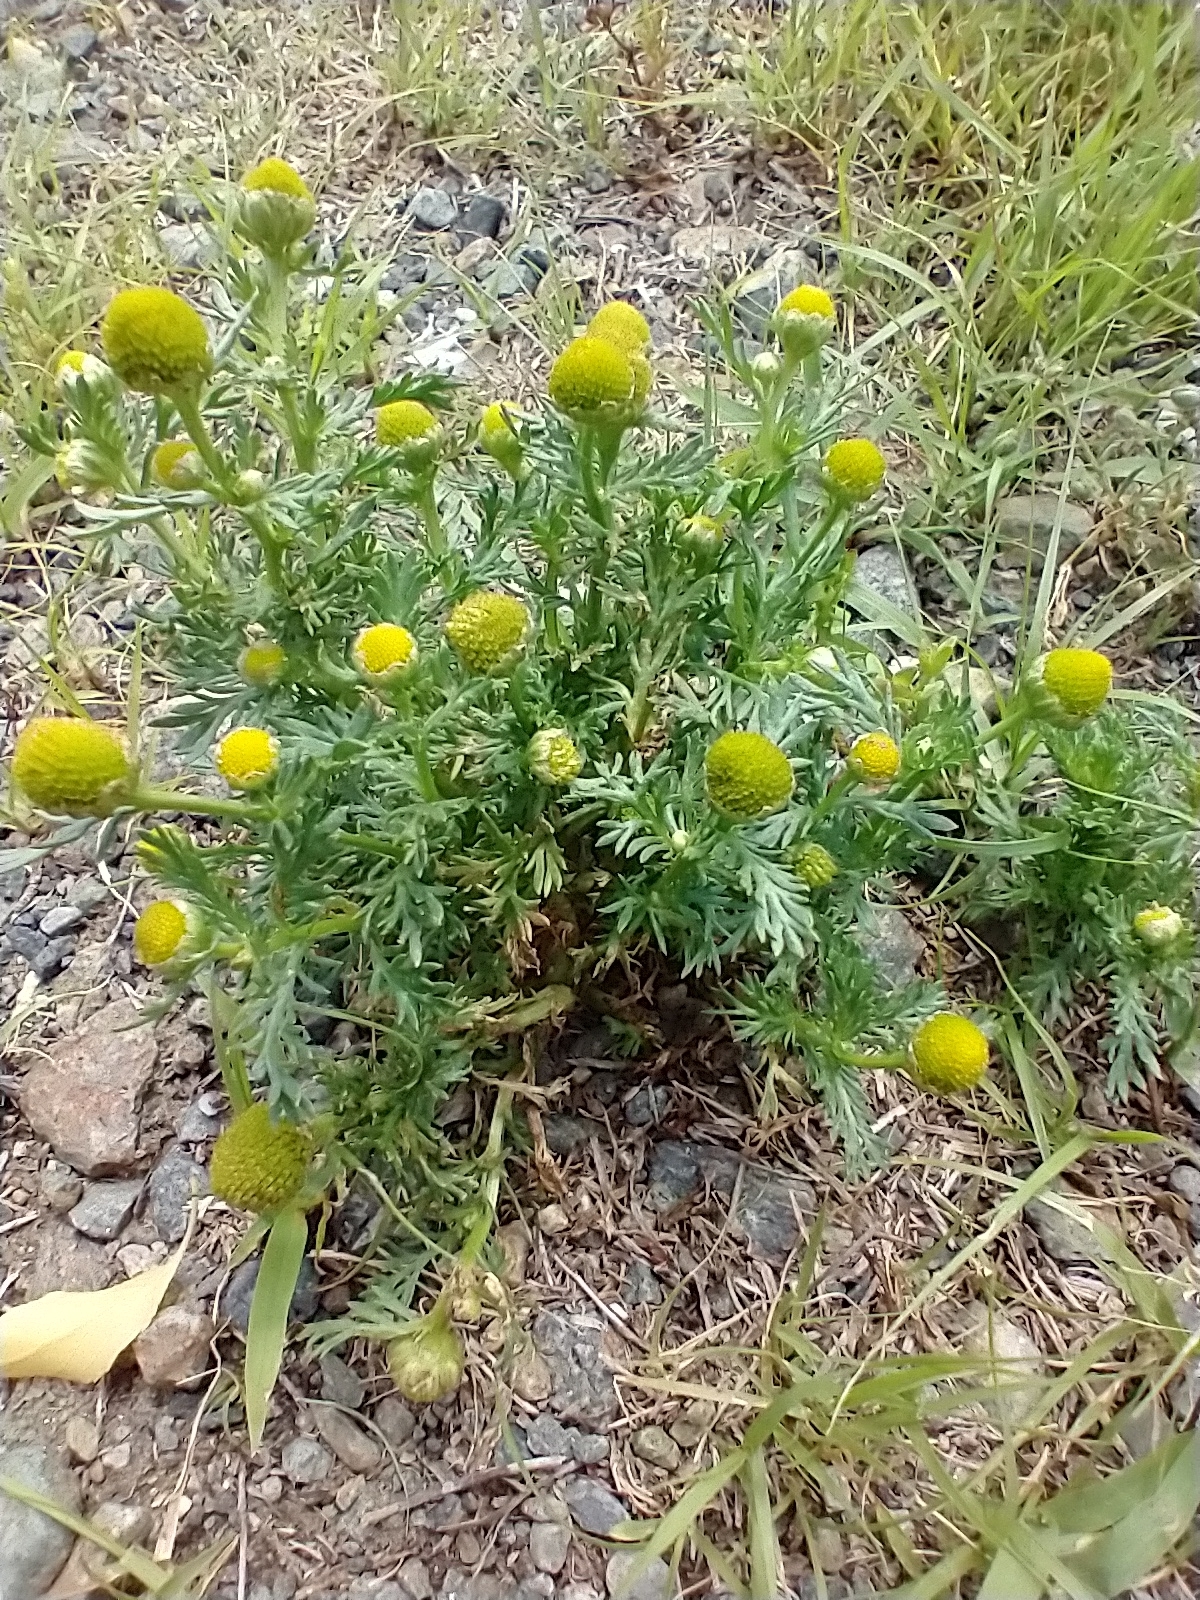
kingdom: Plantae
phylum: Tracheophyta
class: Magnoliopsida
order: Asterales
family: Asteraceae
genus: Matricaria
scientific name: Matricaria discoidea
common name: Disc mayweed
